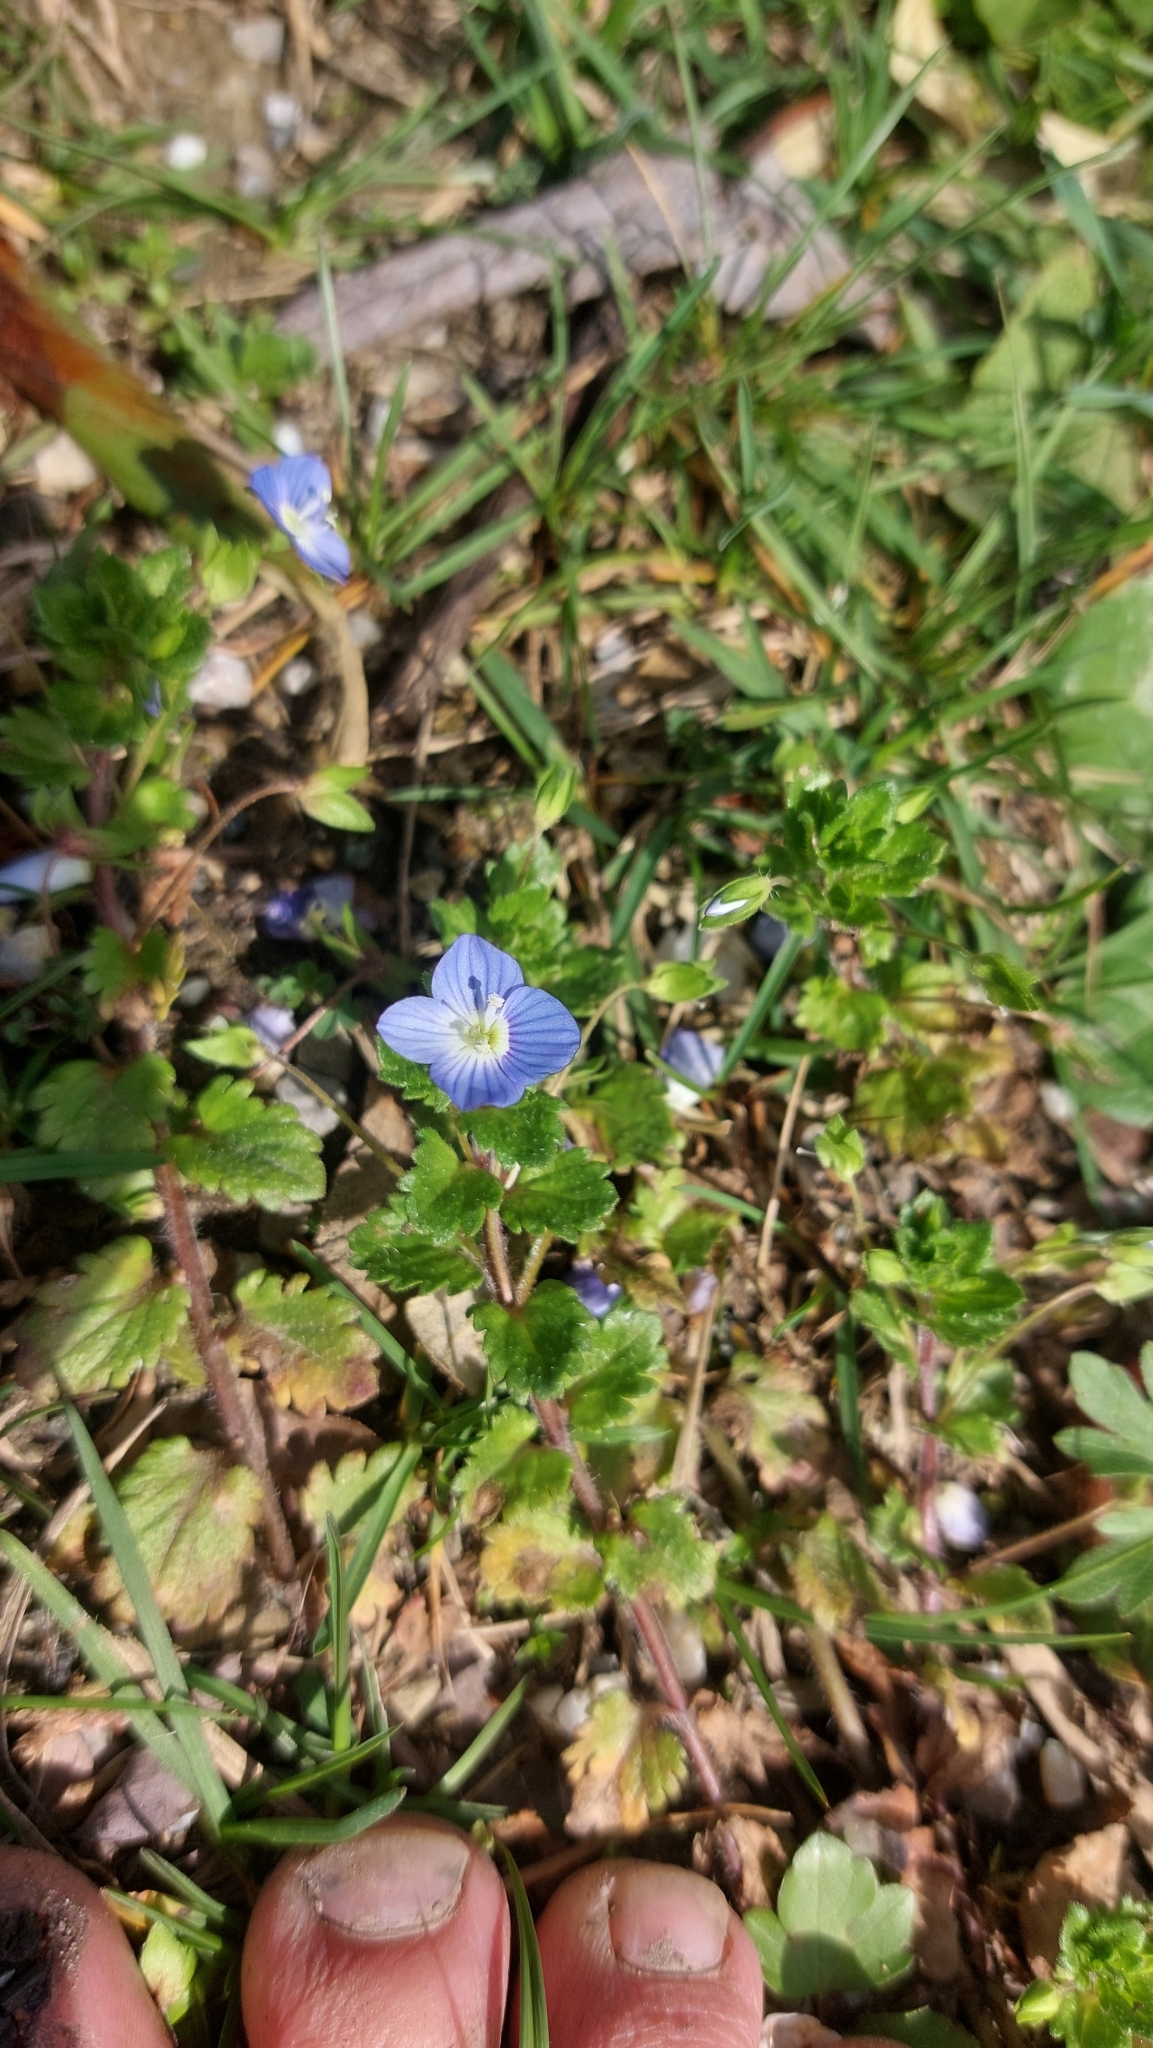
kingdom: Plantae
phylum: Tracheophyta
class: Magnoliopsida
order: Lamiales
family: Plantaginaceae
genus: Veronica
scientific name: Veronica persica
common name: Common field-speedwell
